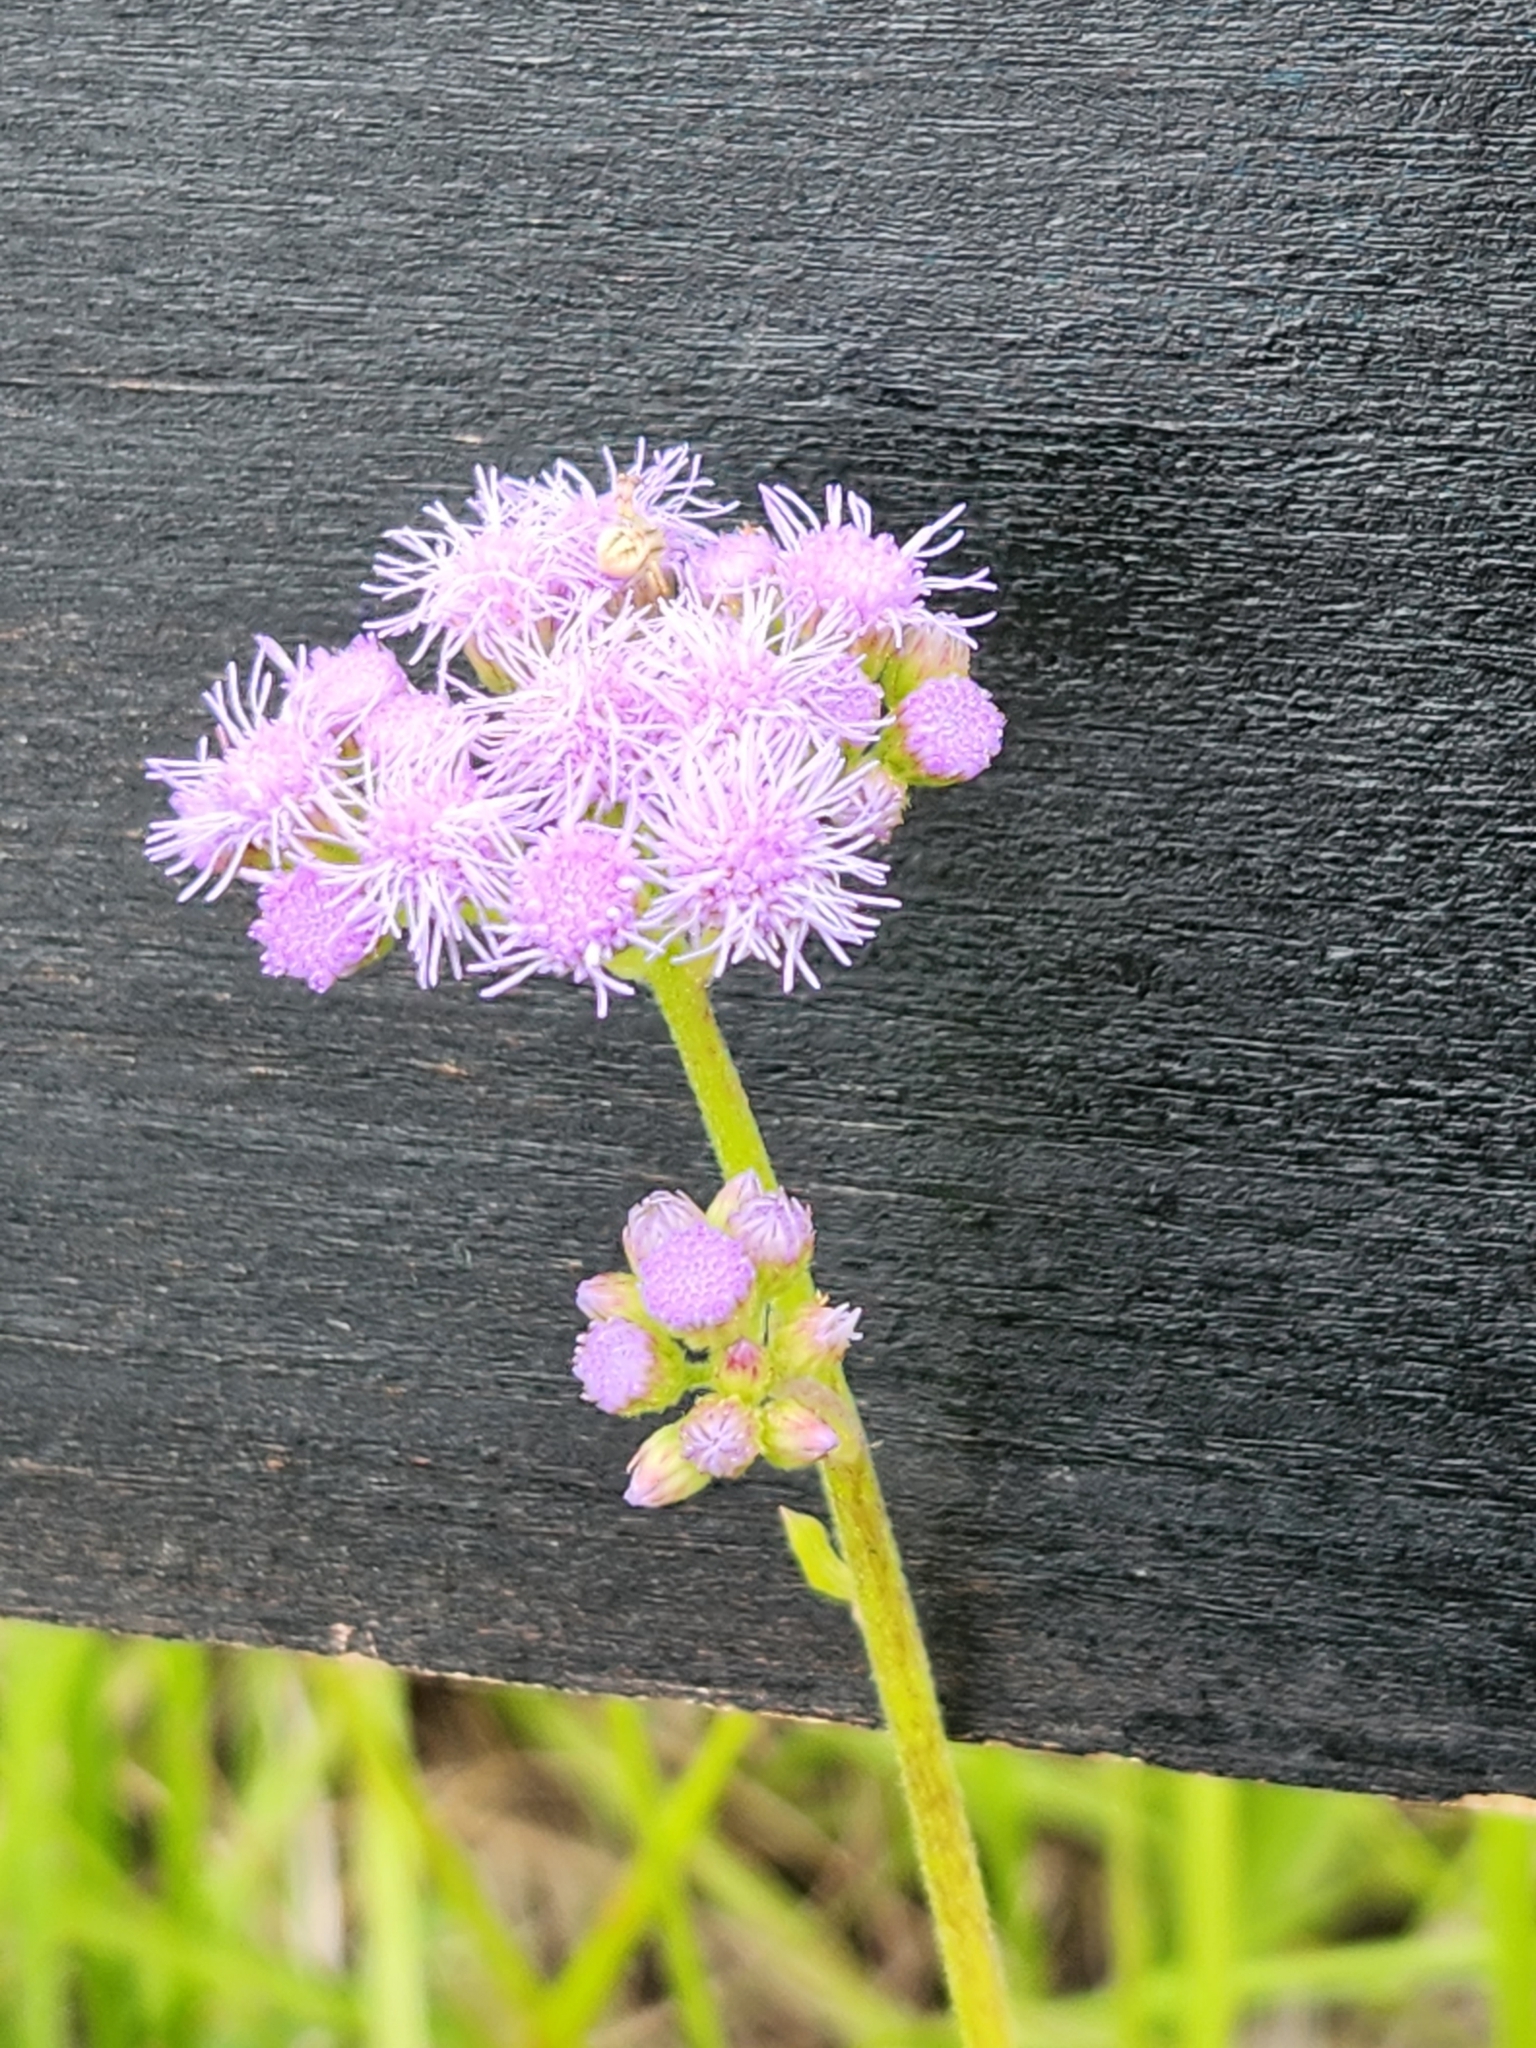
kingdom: Plantae
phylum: Tracheophyta
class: Magnoliopsida
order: Asterales
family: Asteraceae
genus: Conoclinium
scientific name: Conoclinium betonicifolium
